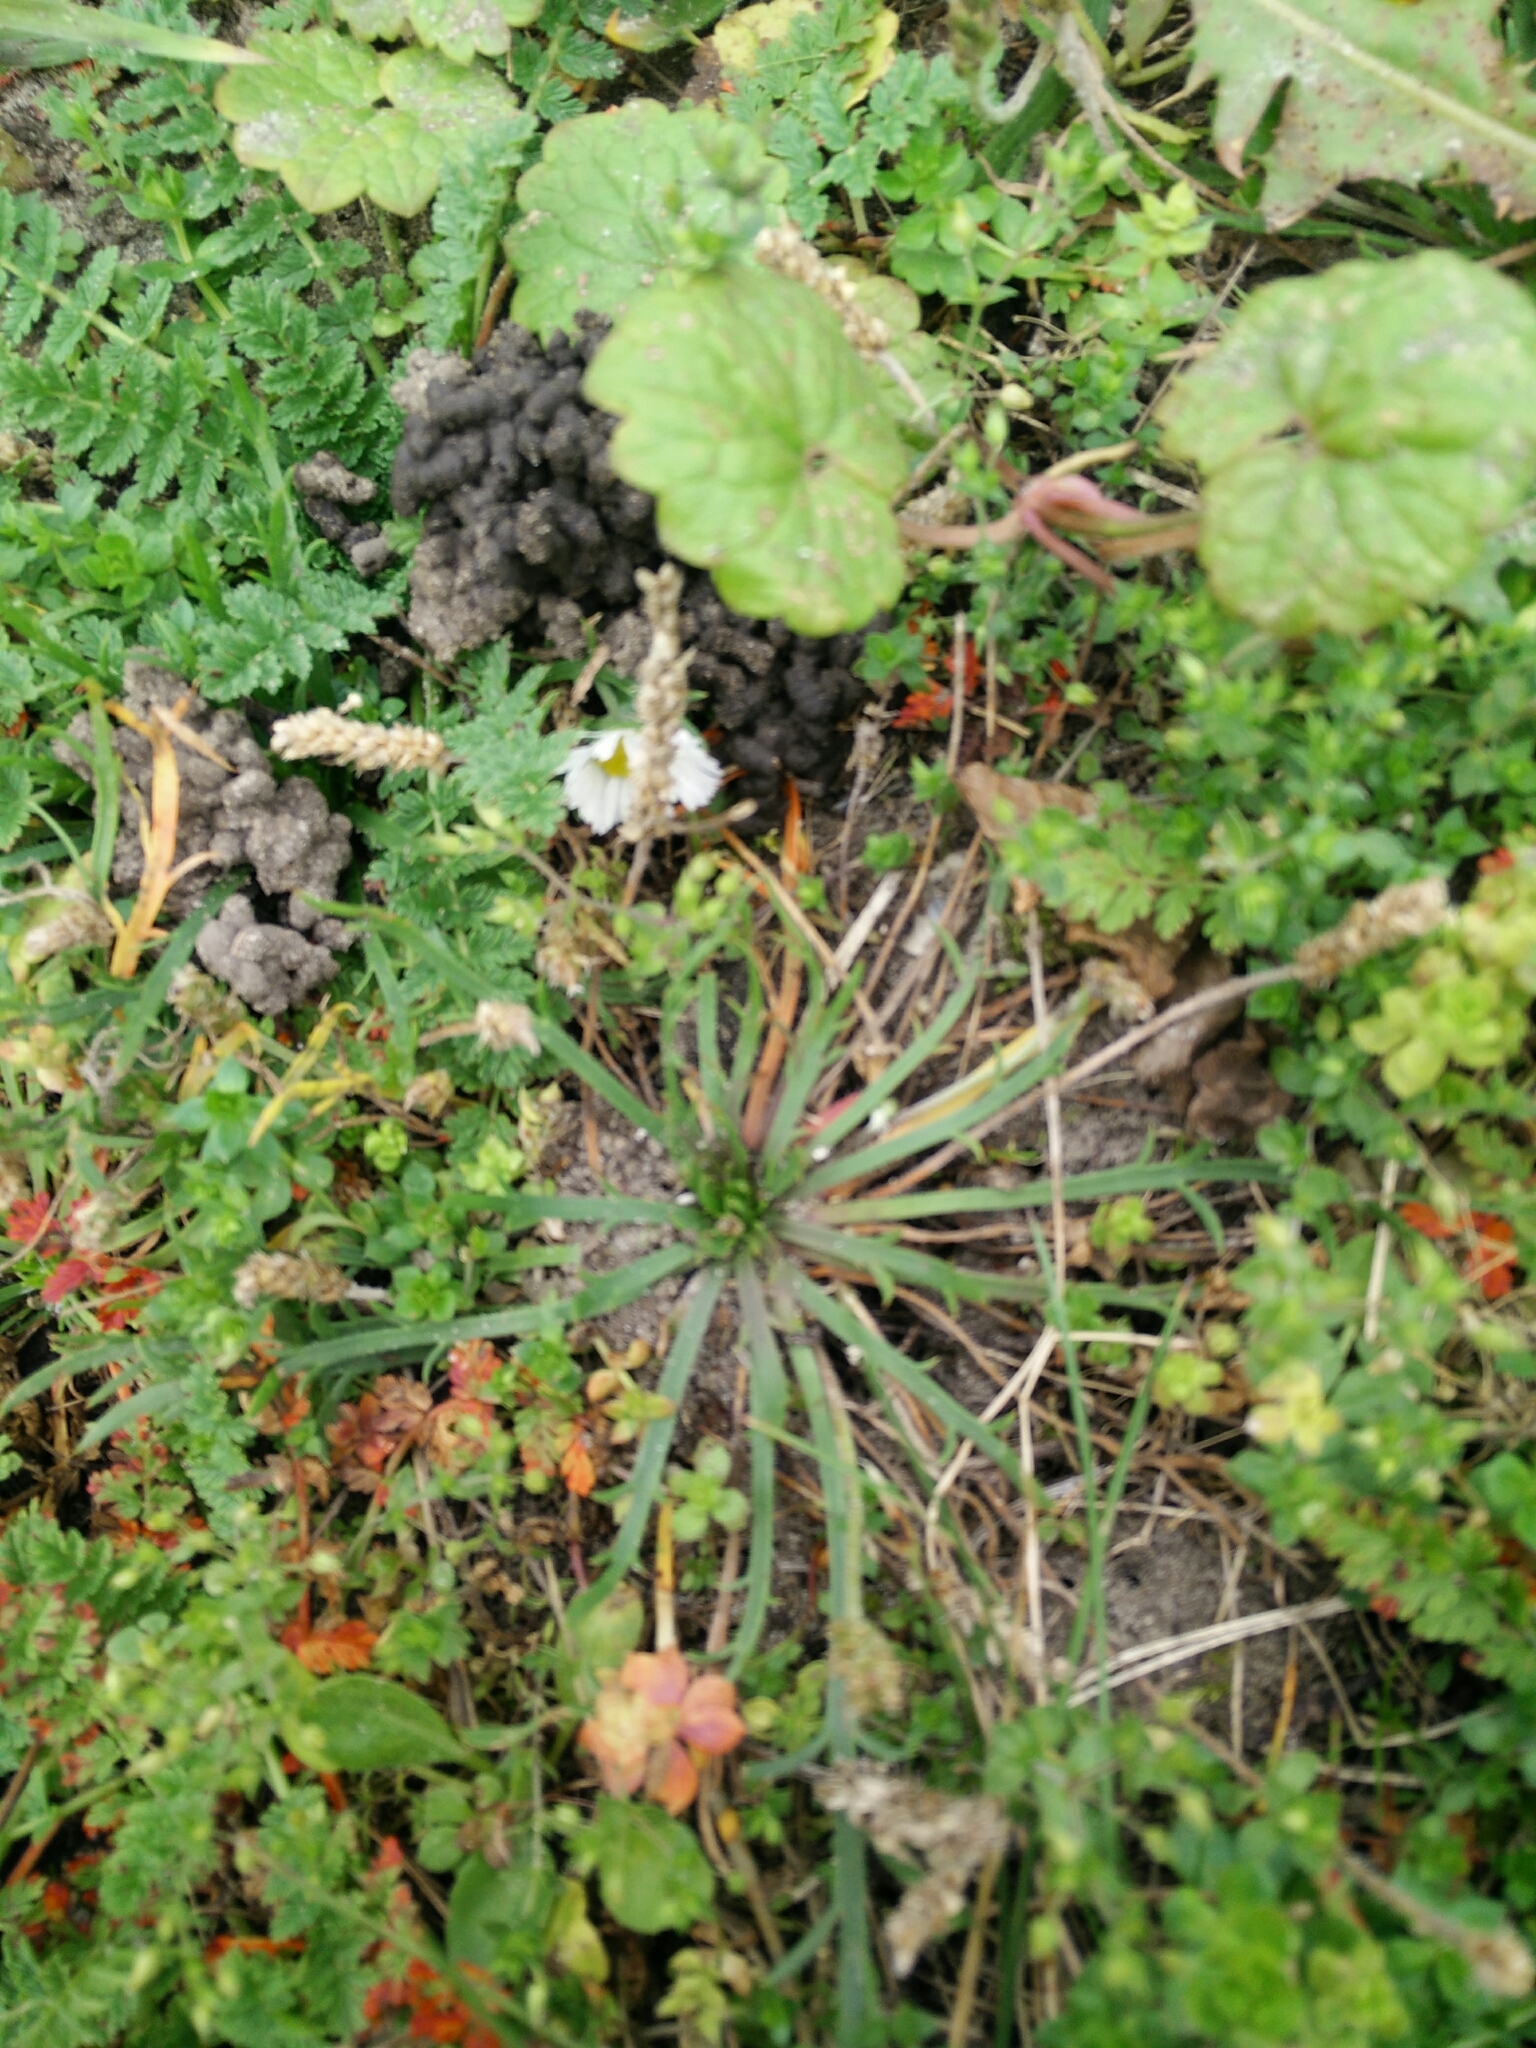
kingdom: Plantae
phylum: Tracheophyta
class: Magnoliopsida
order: Lamiales
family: Plantaginaceae
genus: Plantago
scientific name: Plantago coronopus
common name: Buck's-horn plantain
